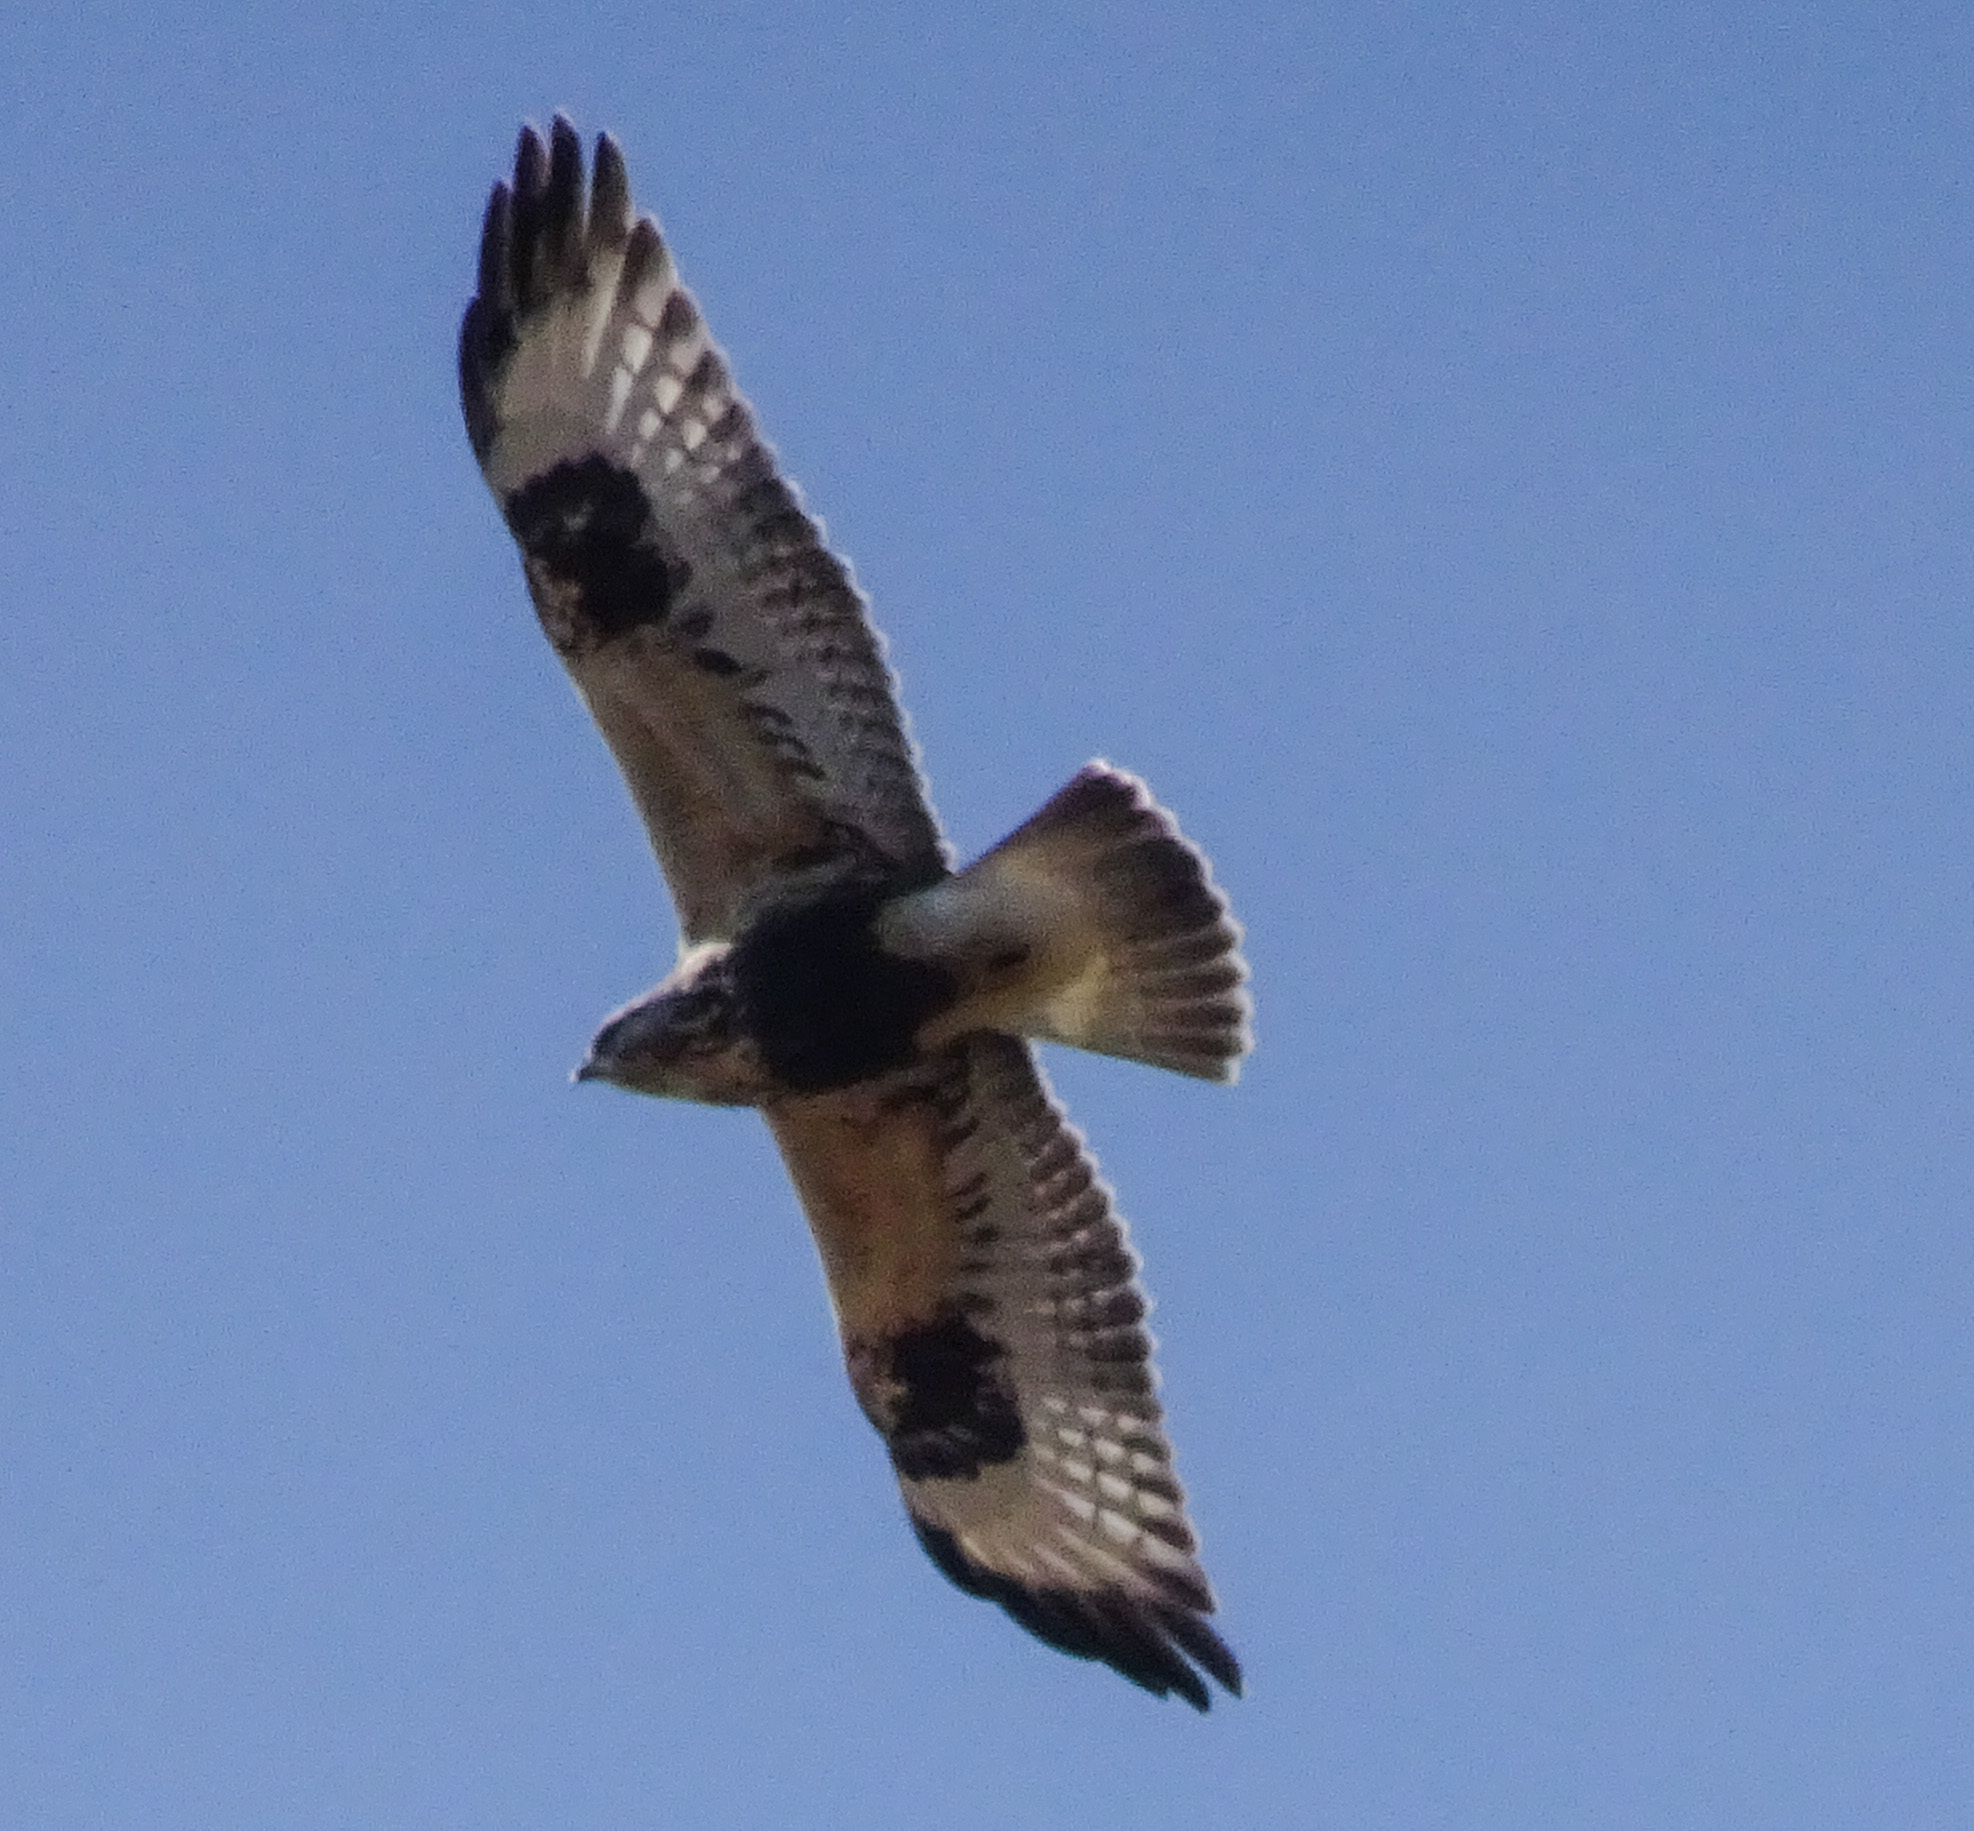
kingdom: Animalia
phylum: Chordata
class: Aves
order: Accipitriformes
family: Accipitridae
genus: Buteo
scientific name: Buteo lagopus
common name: Rough-legged buzzard
